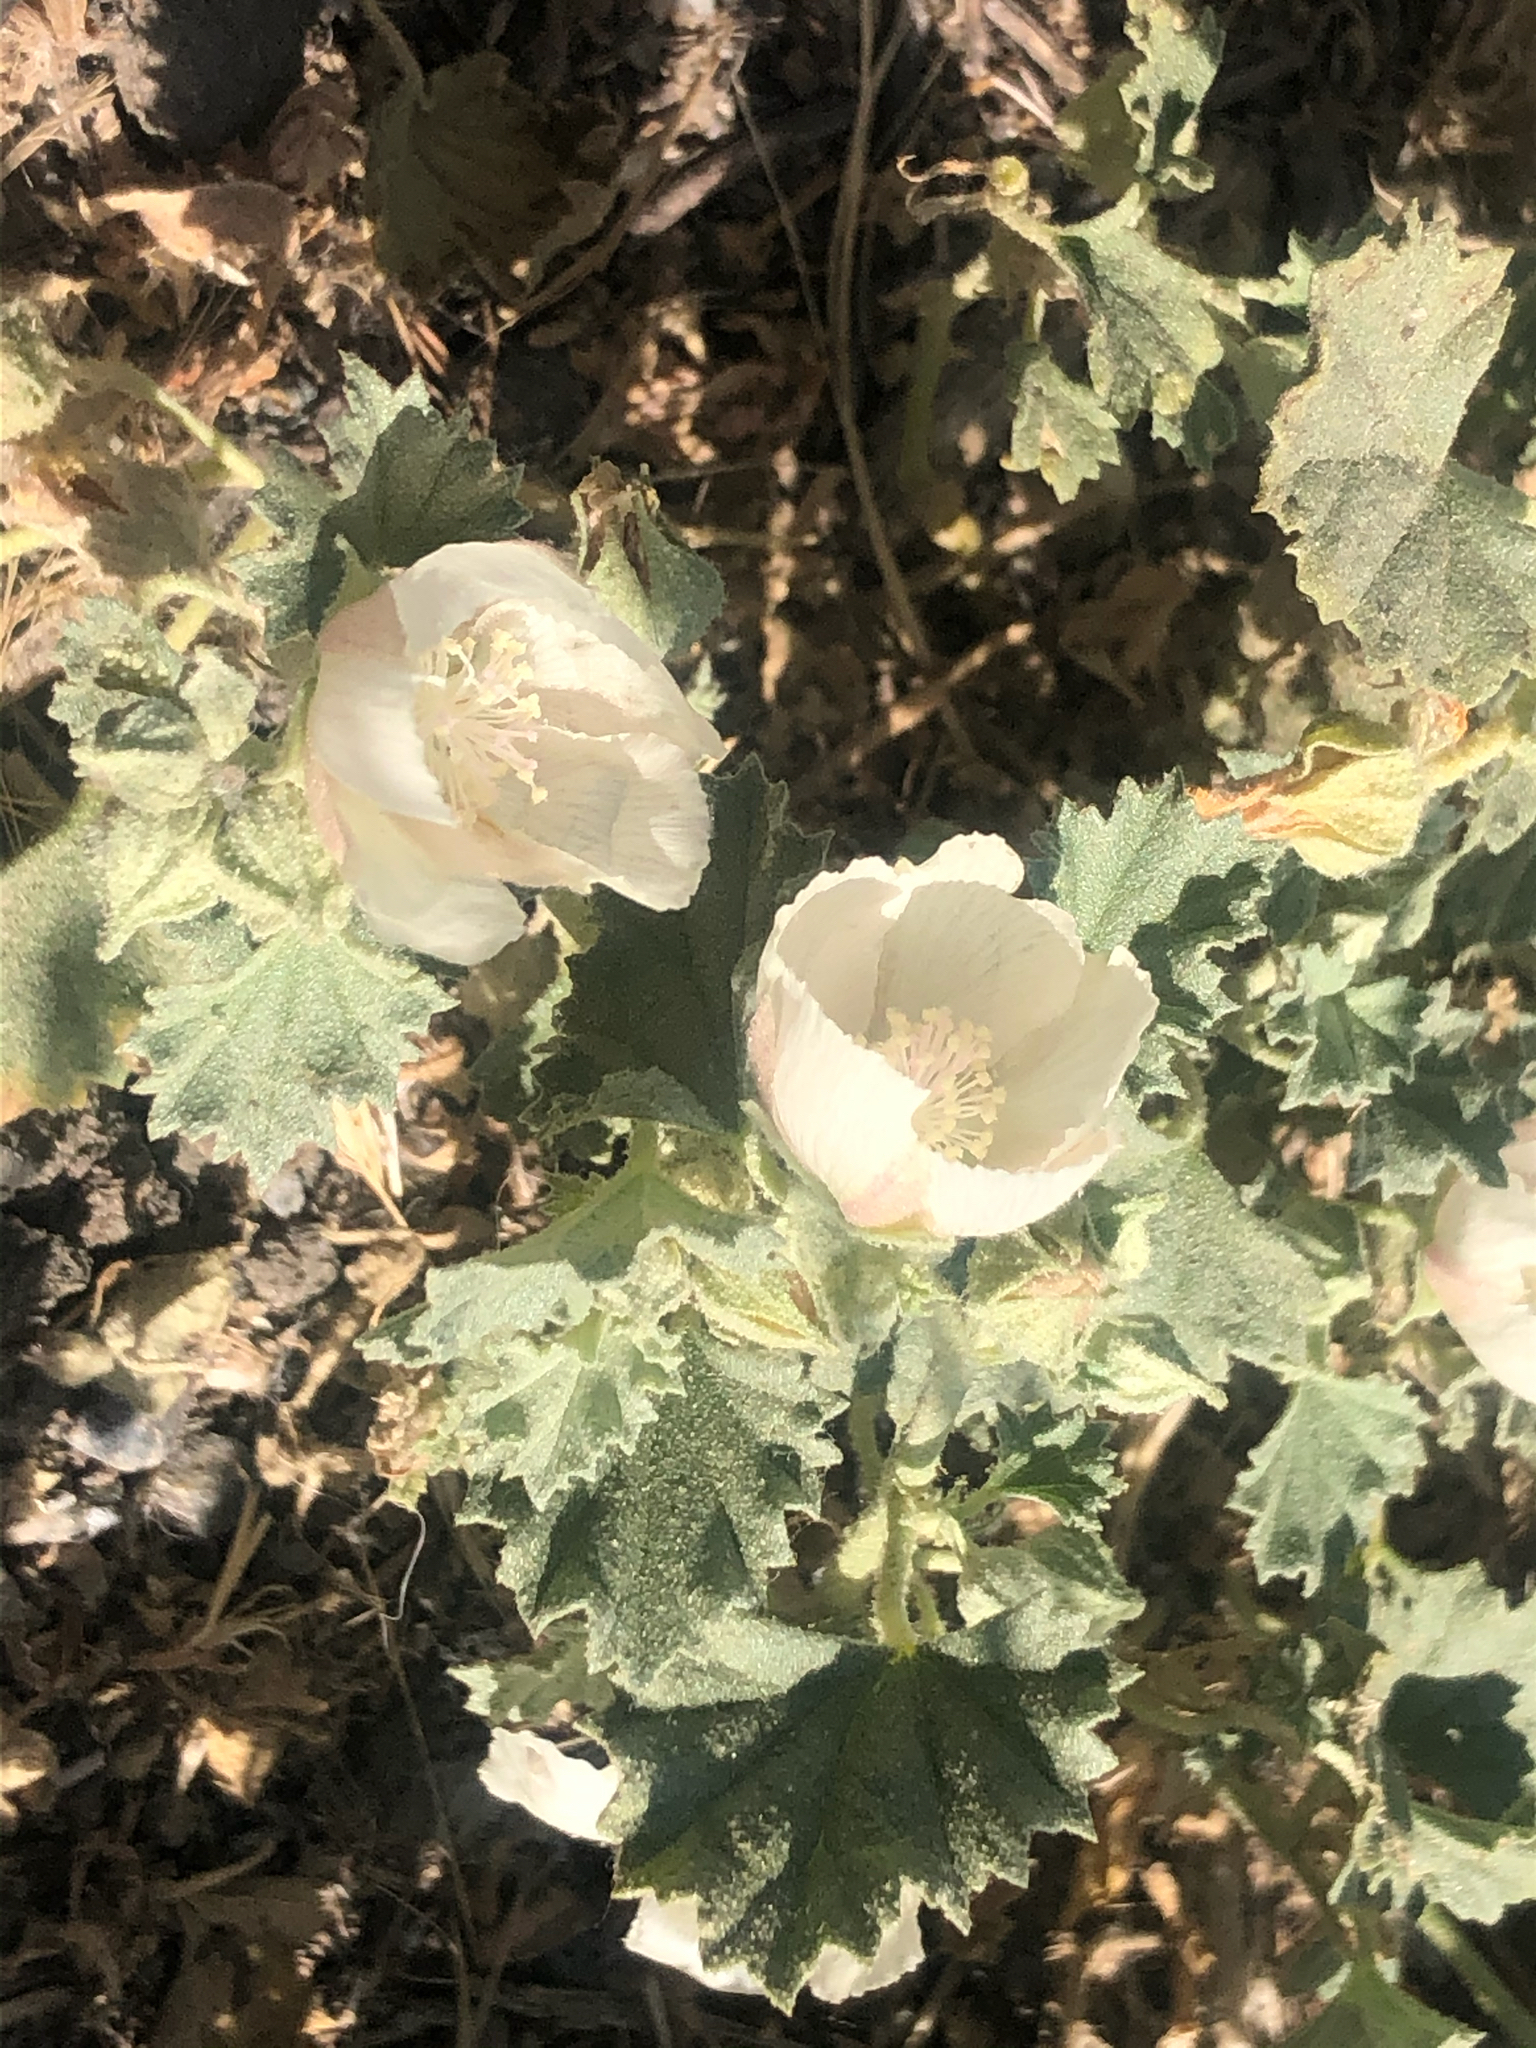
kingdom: Plantae
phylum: Tracheophyta
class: Magnoliopsida
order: Malvales
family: Malvaceae
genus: Malvella
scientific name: Malvella leprosa
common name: Alkali-mallow
